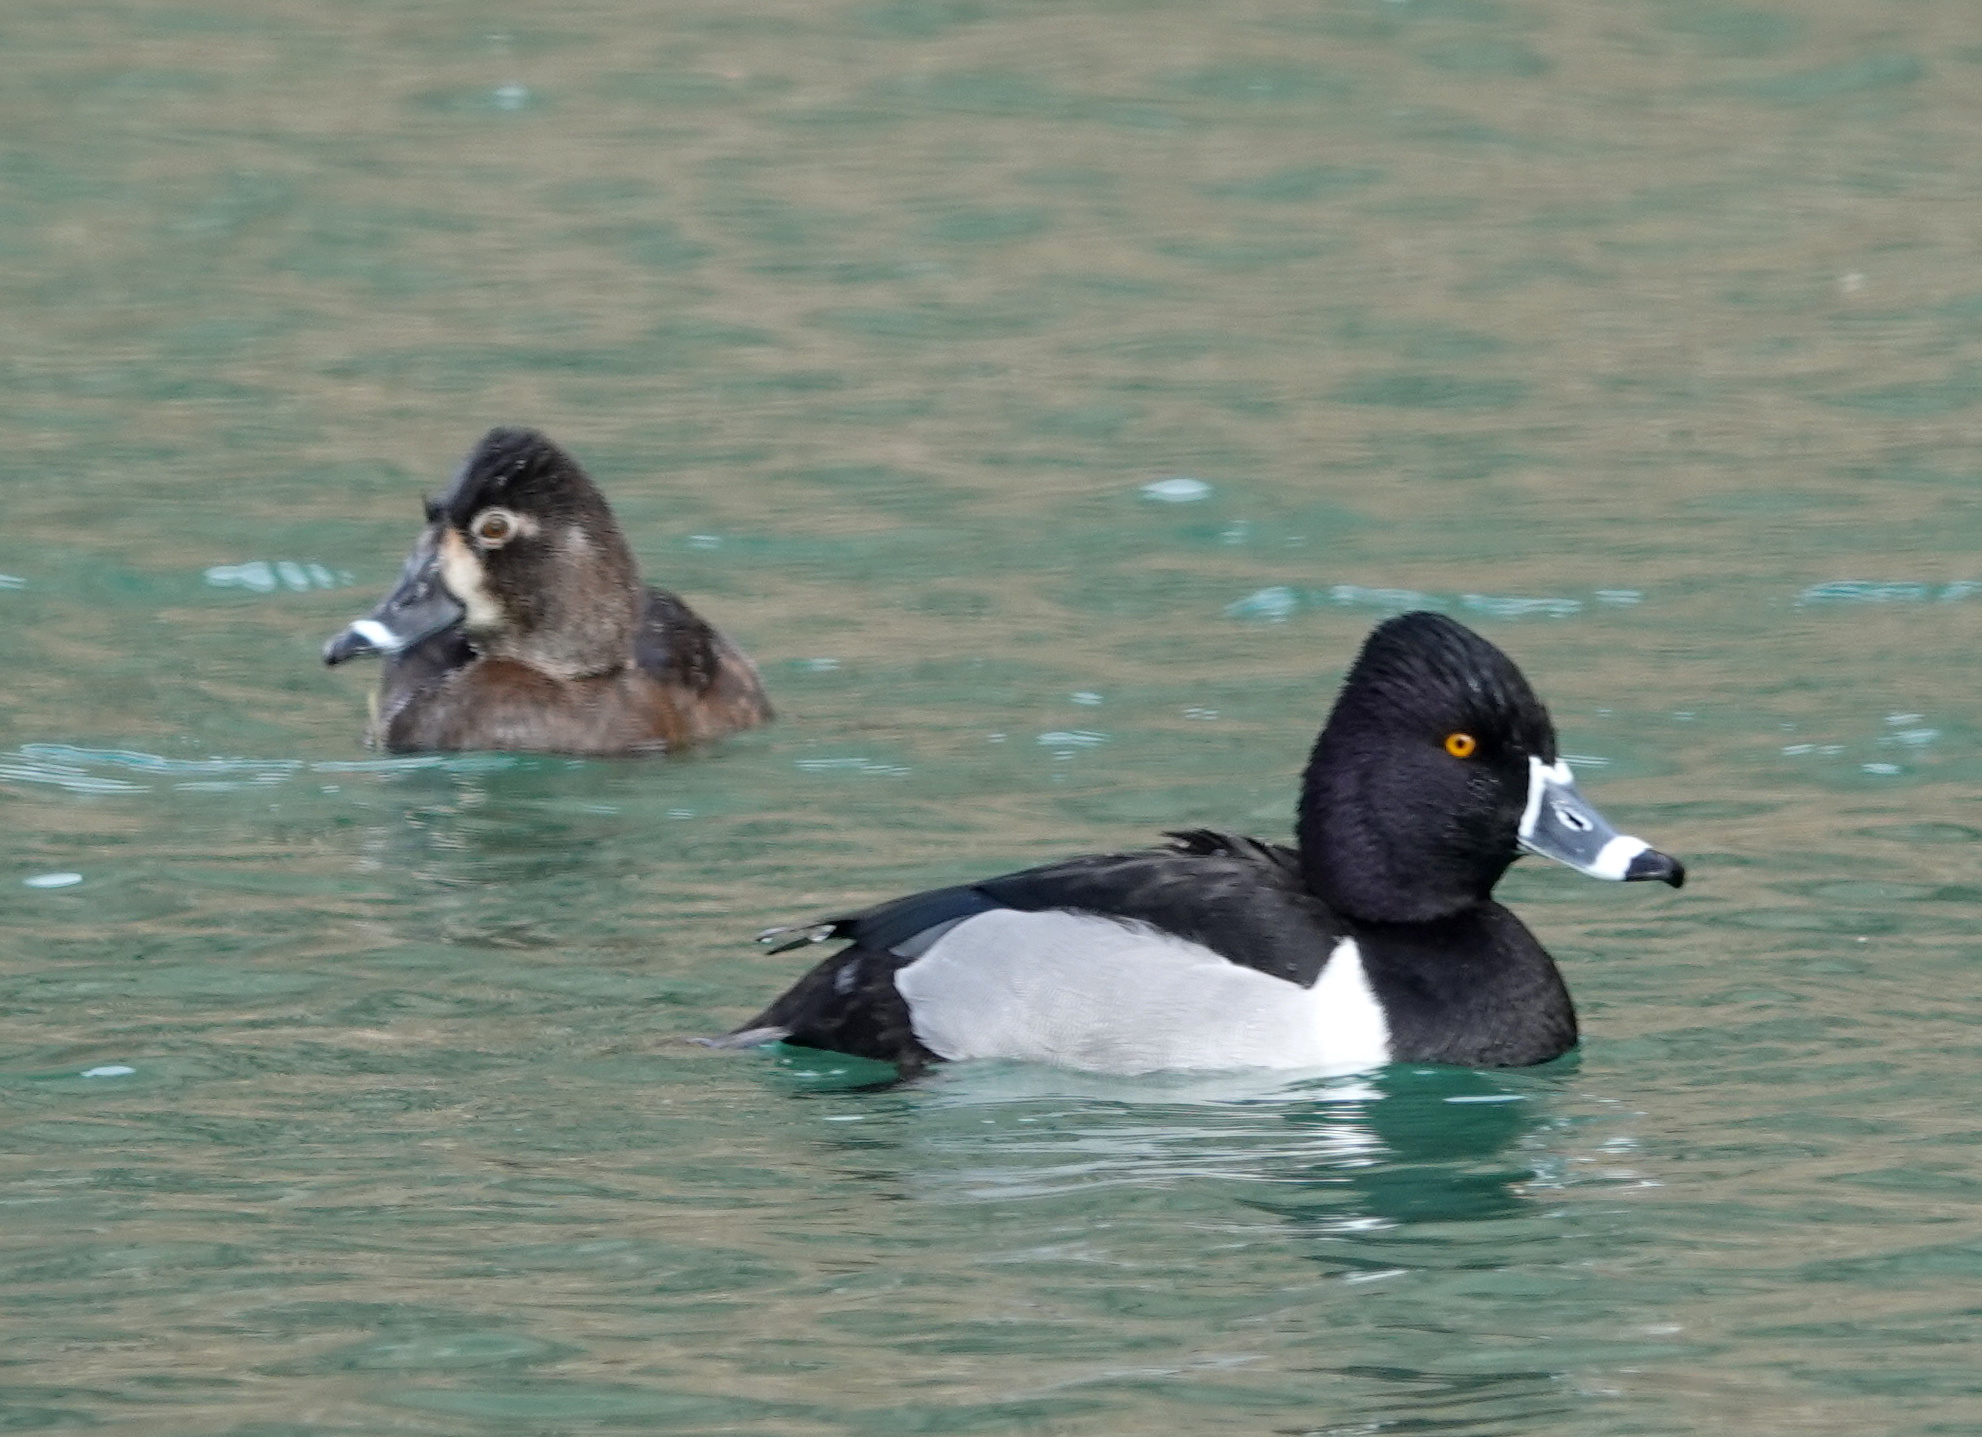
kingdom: Animalia
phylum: Chordata
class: Aves
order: Anseriformes
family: Anatidae
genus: Aythya
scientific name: Aythya collaris
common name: Ring-necked duck
